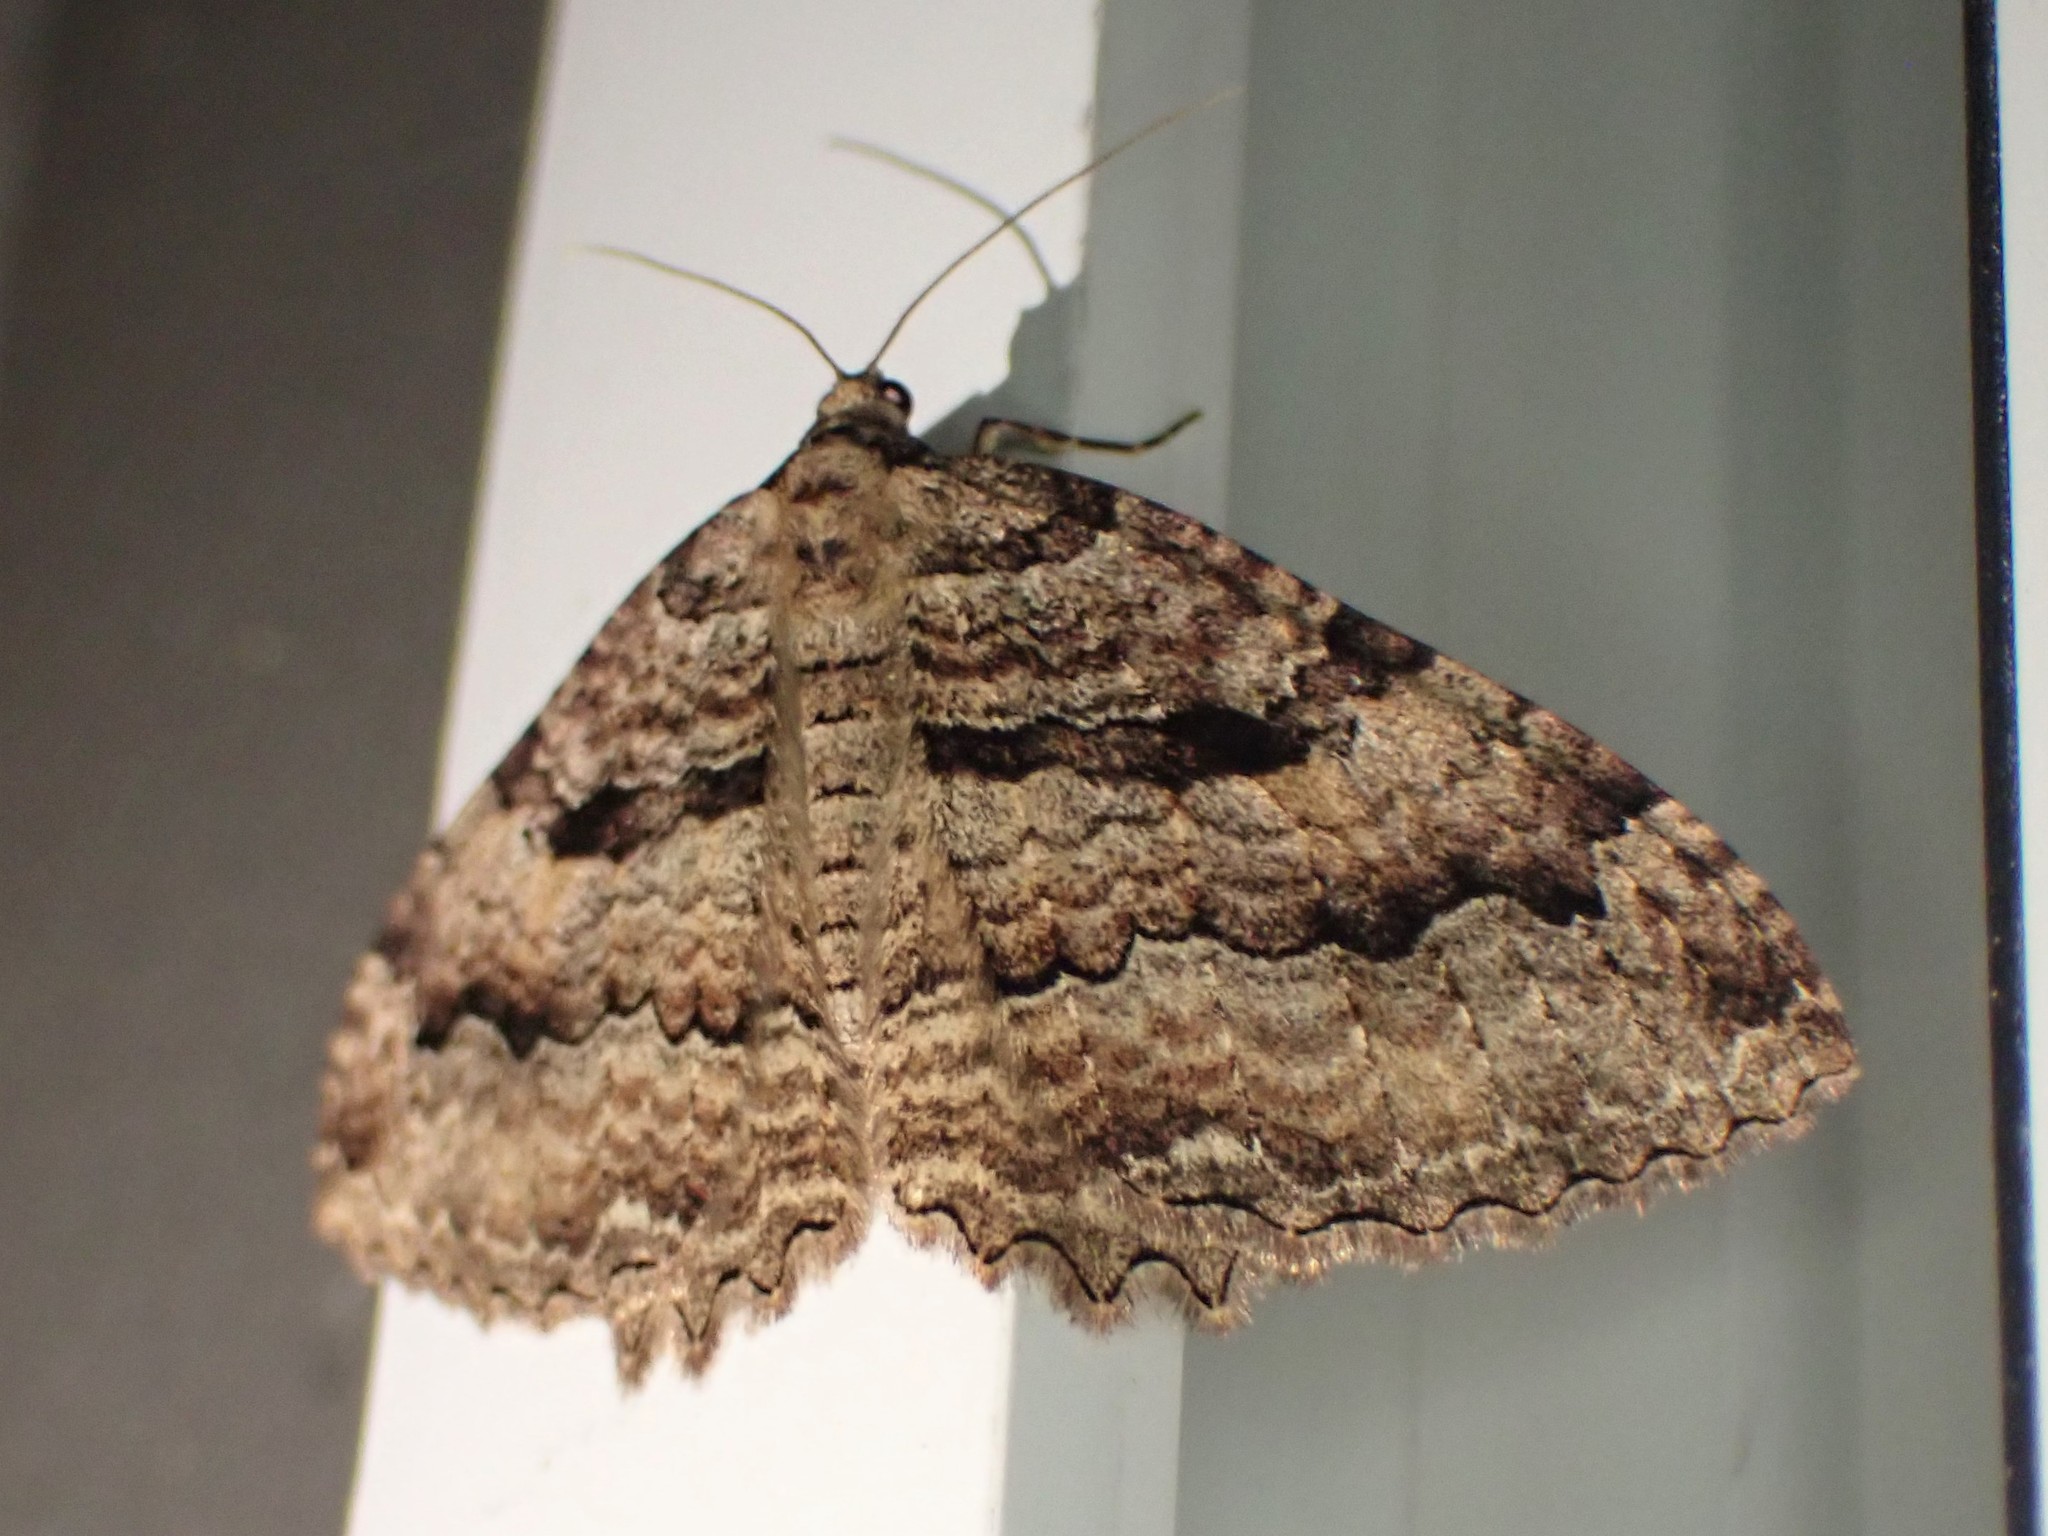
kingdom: Animalia
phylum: Arthropoda
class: Insecta
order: Lepidoptera
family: Geometridae
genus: Triphosa
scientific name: Triphosa haesitata
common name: Tissue moth
